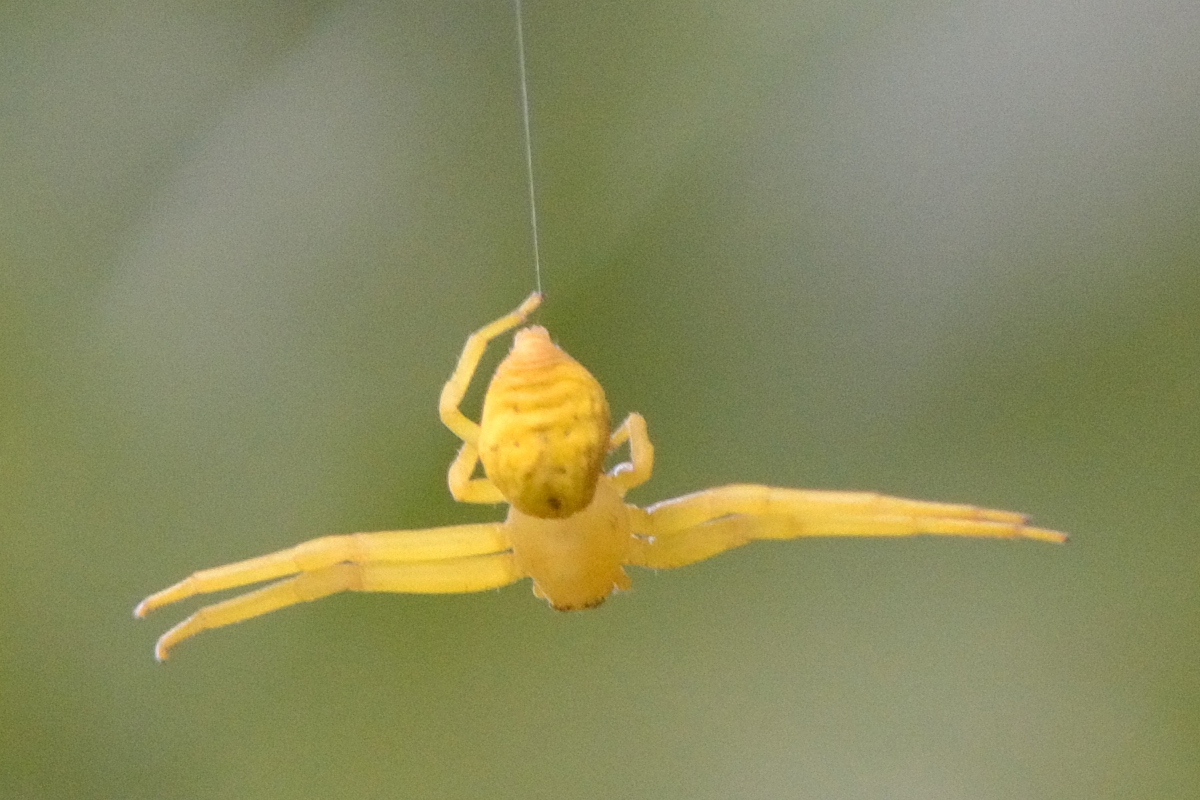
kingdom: Animalia
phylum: Arthropoda
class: Arachnida
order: Araneae
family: Thomisidae
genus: Misumena
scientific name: Misumena vatia
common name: Goldenrod crab spider
